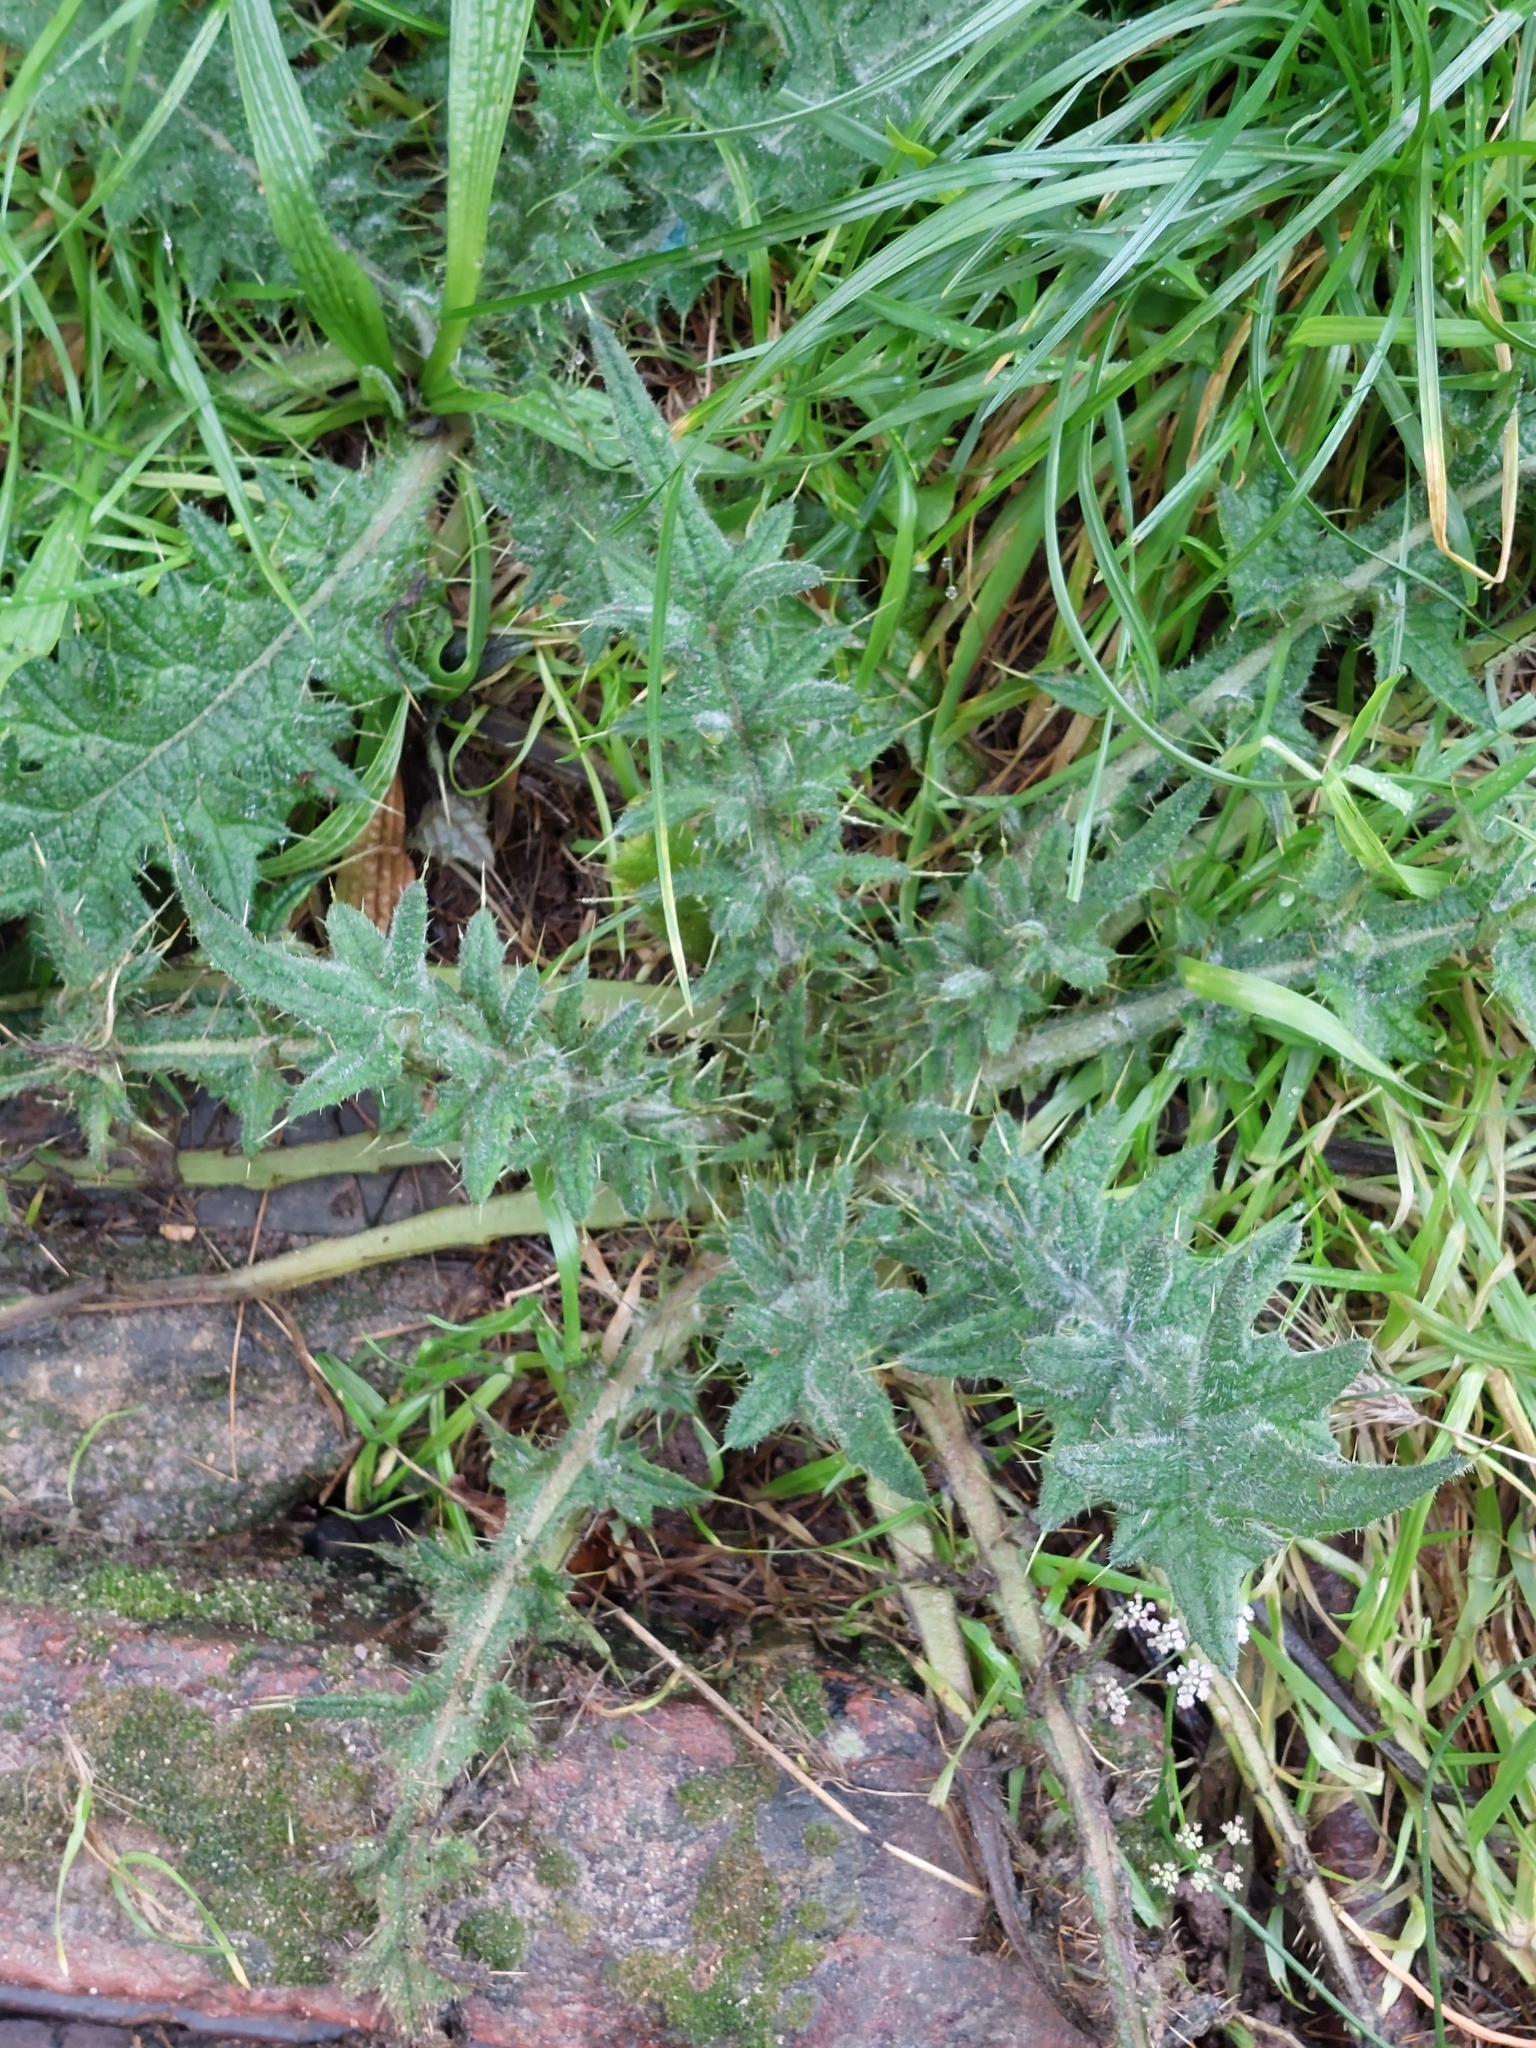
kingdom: Plantae
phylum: Tracheophyta
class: Magnoliopsida
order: Asterales
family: Asteraceae
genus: Cirsium
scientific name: Cirsium vulgare
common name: Bull thistle
